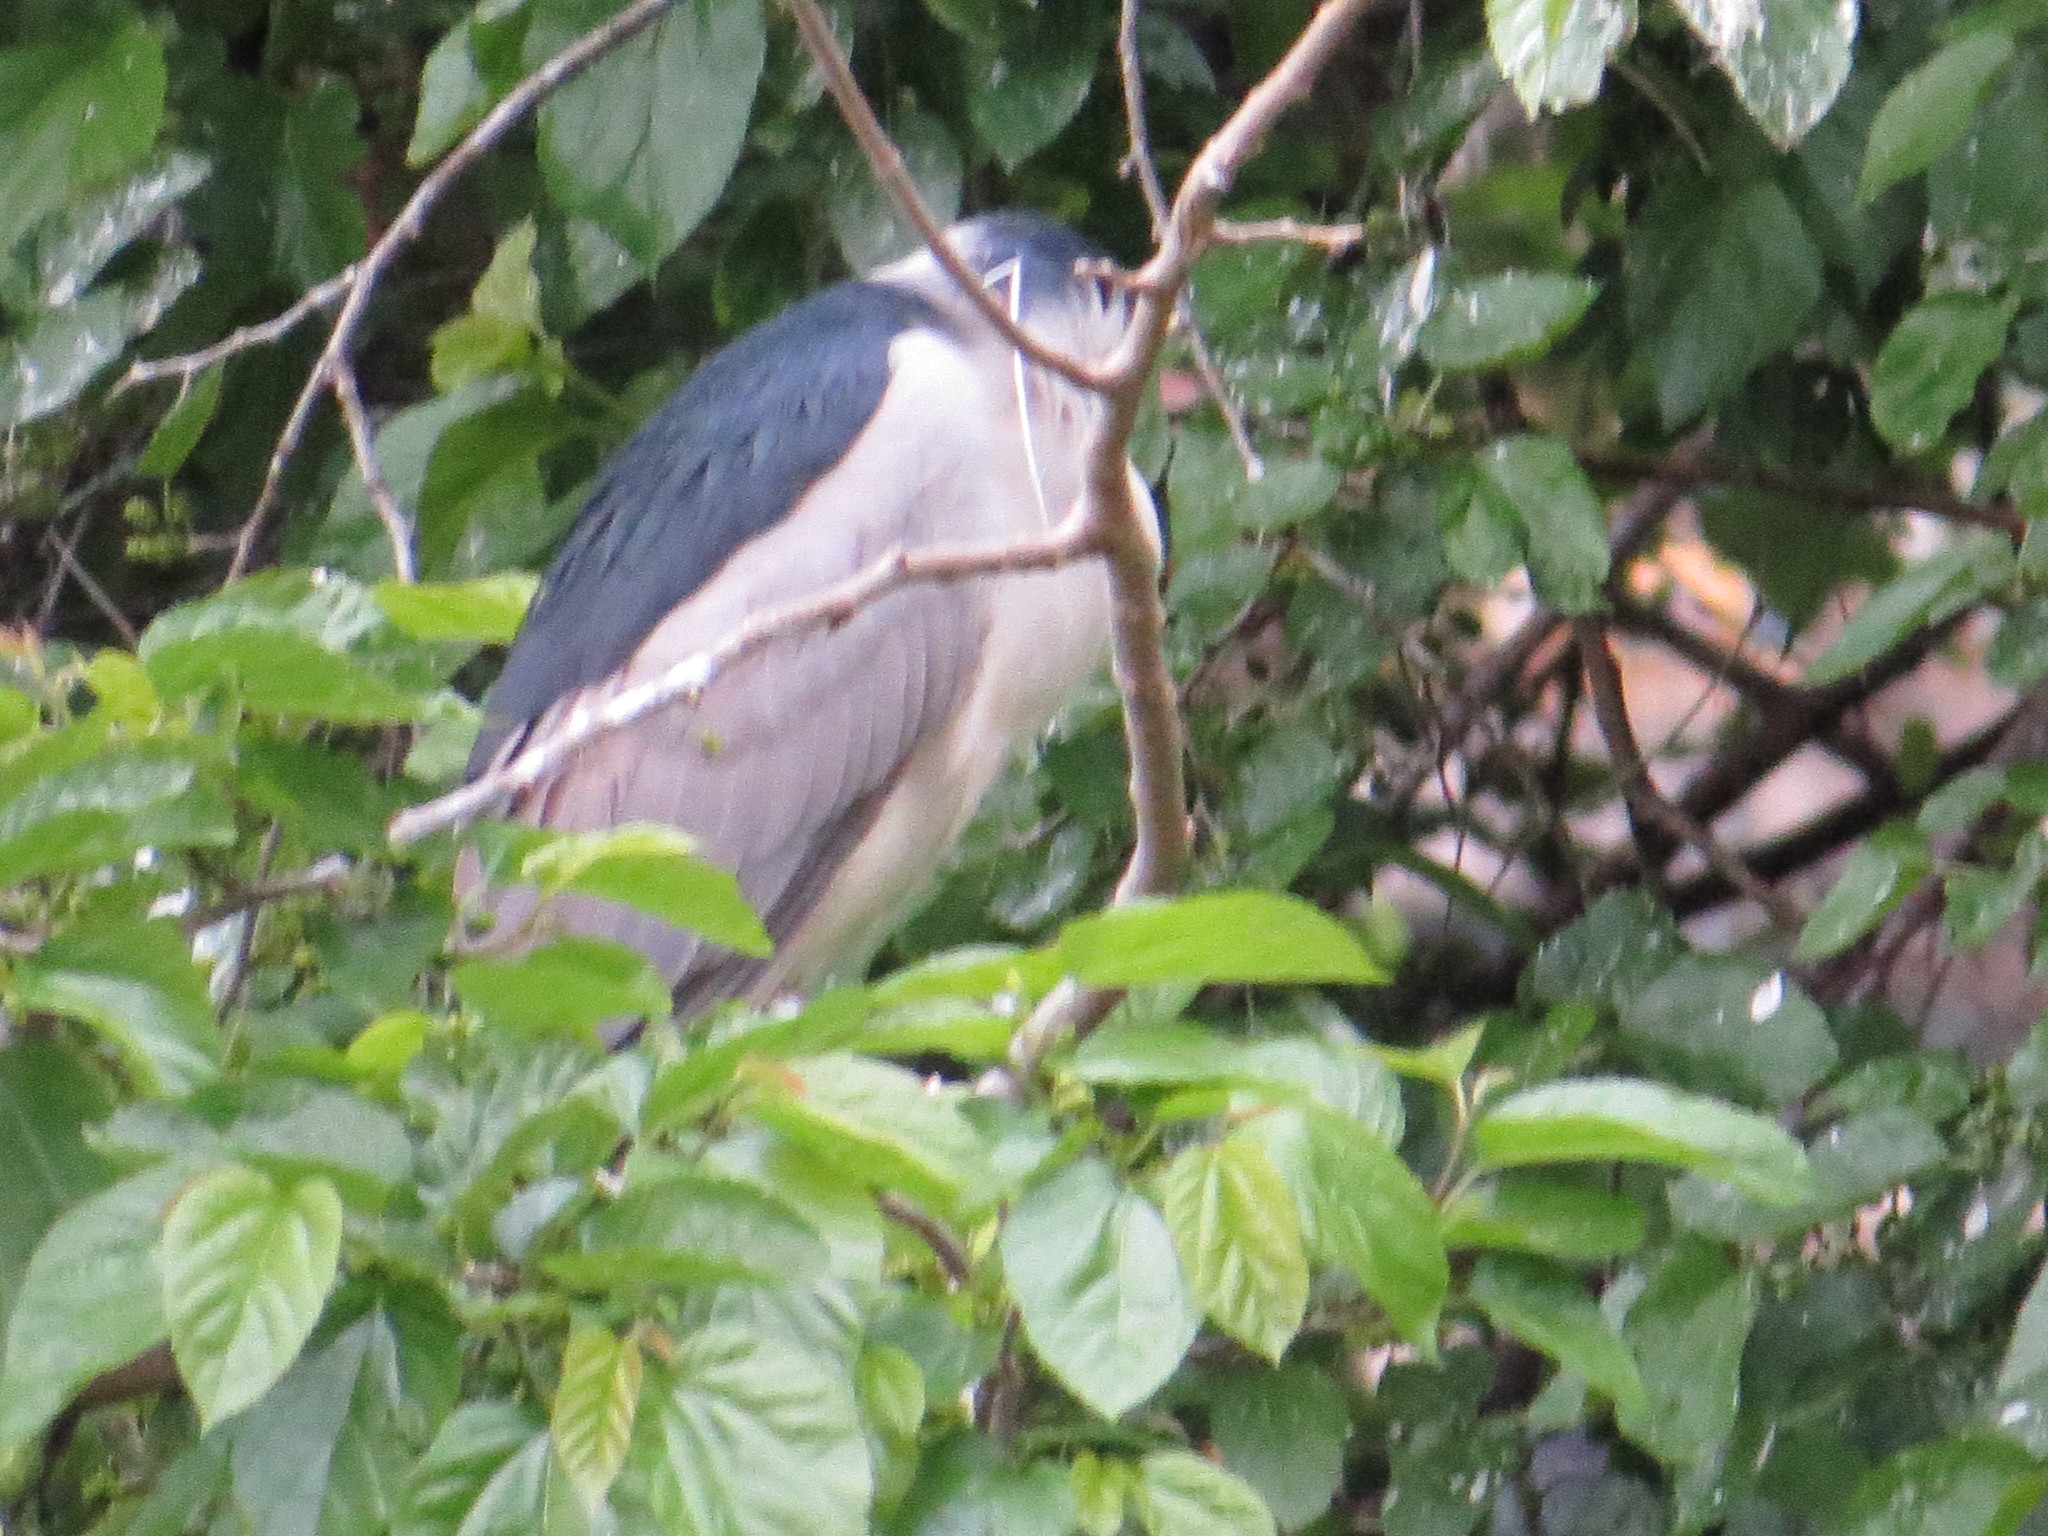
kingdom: Animalia
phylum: Chordata
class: Aves
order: Pelecaniformes
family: Ardeidae
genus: Nycticorax
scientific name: Nycticorax nycticorax
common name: Black-crowned night heron
